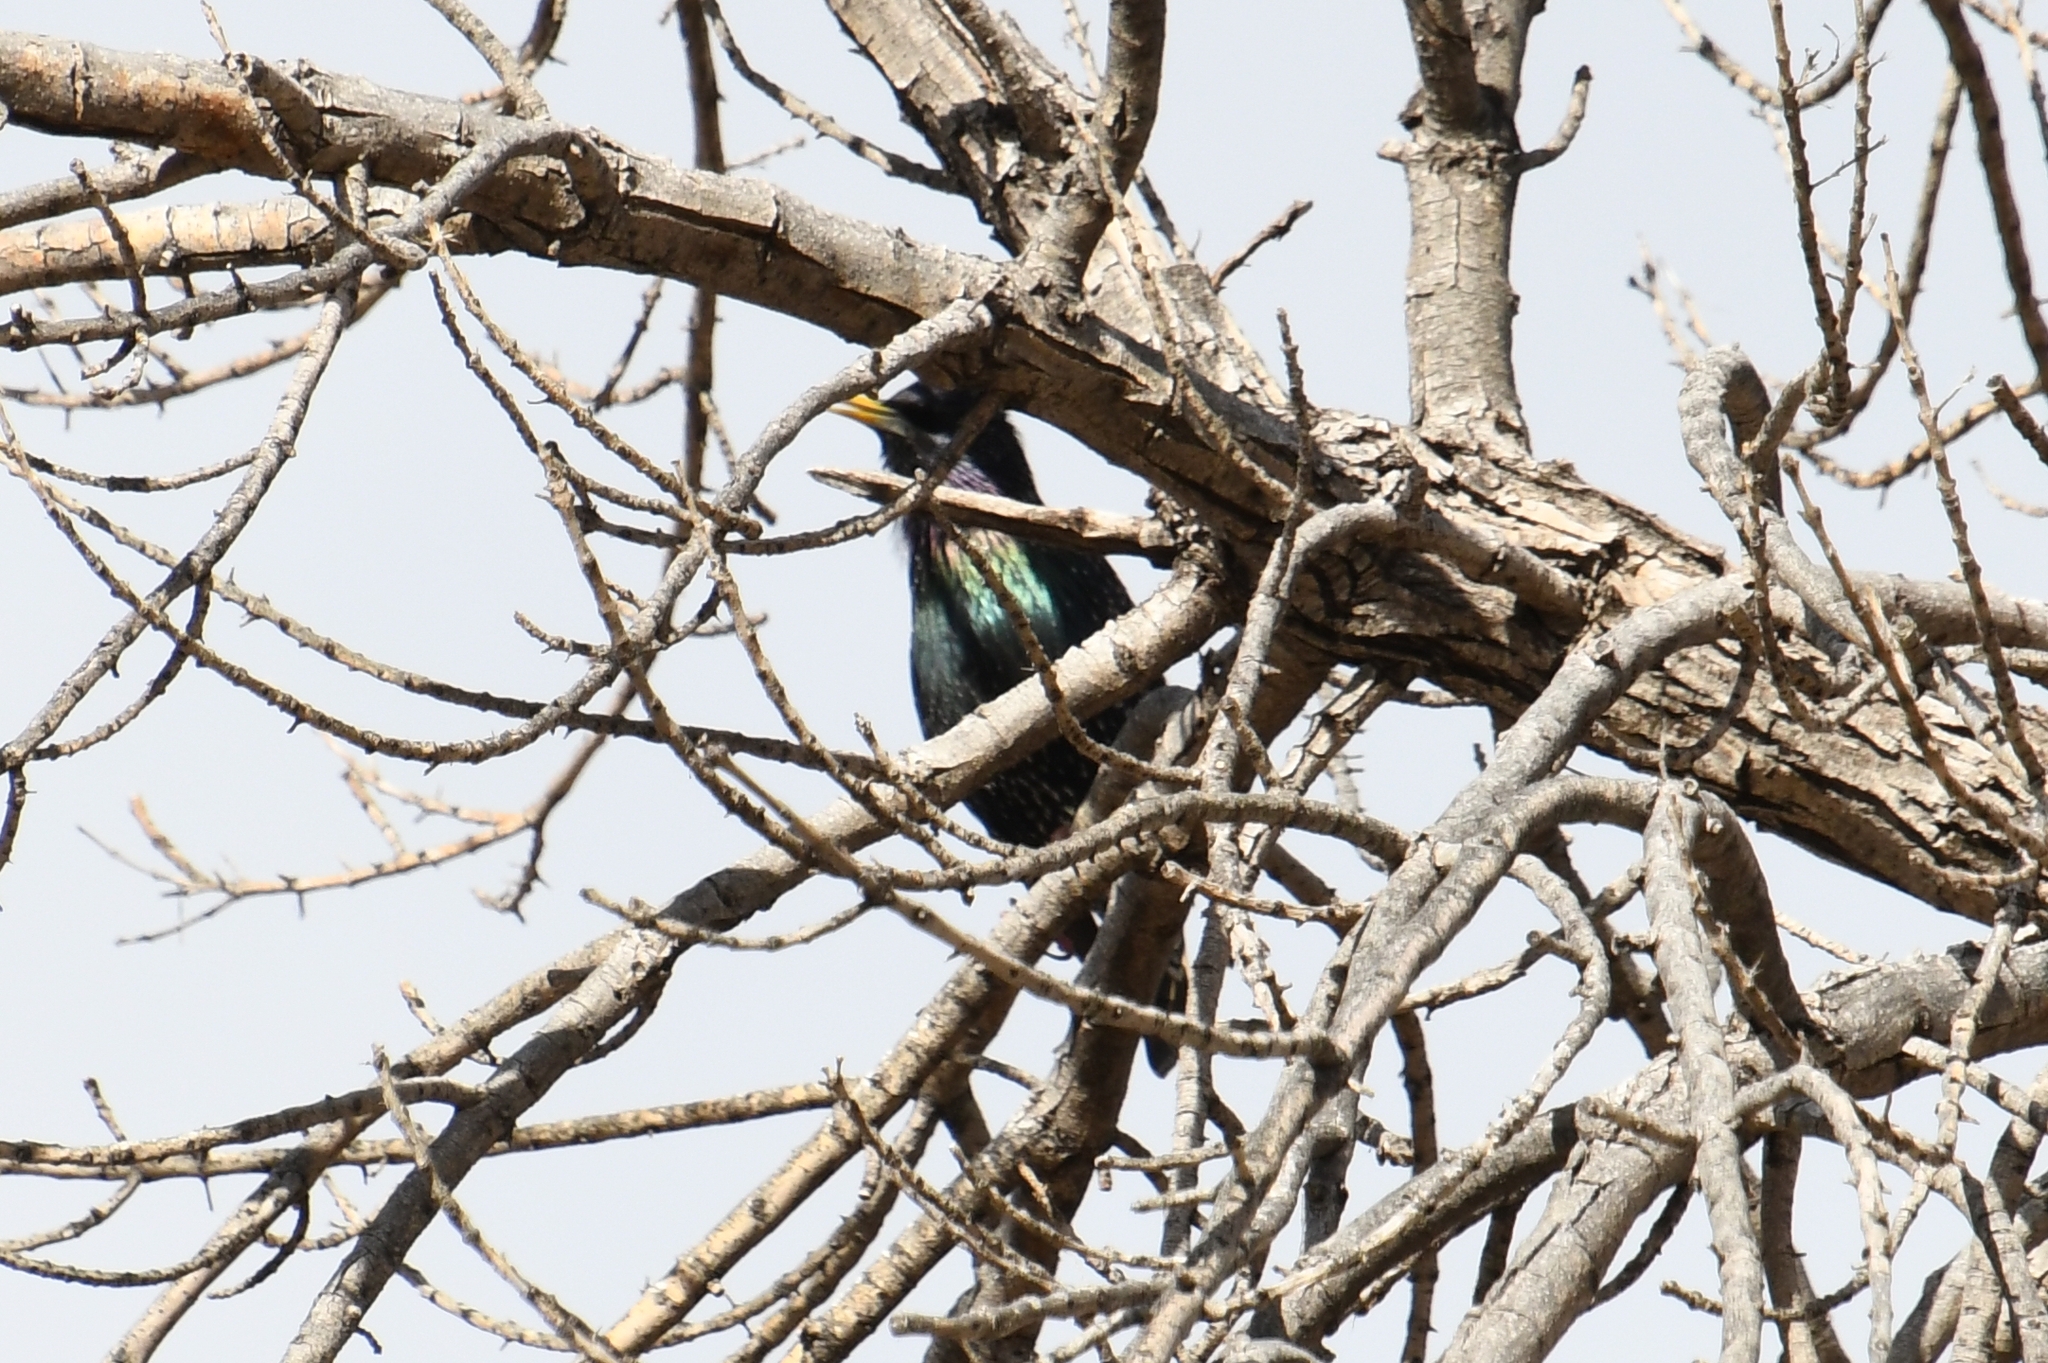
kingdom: Animalia
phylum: Chordata
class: Aves
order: Passeriformes
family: Sturnidae
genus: Sturnus
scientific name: Sturnus vulgaris
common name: Common starling
